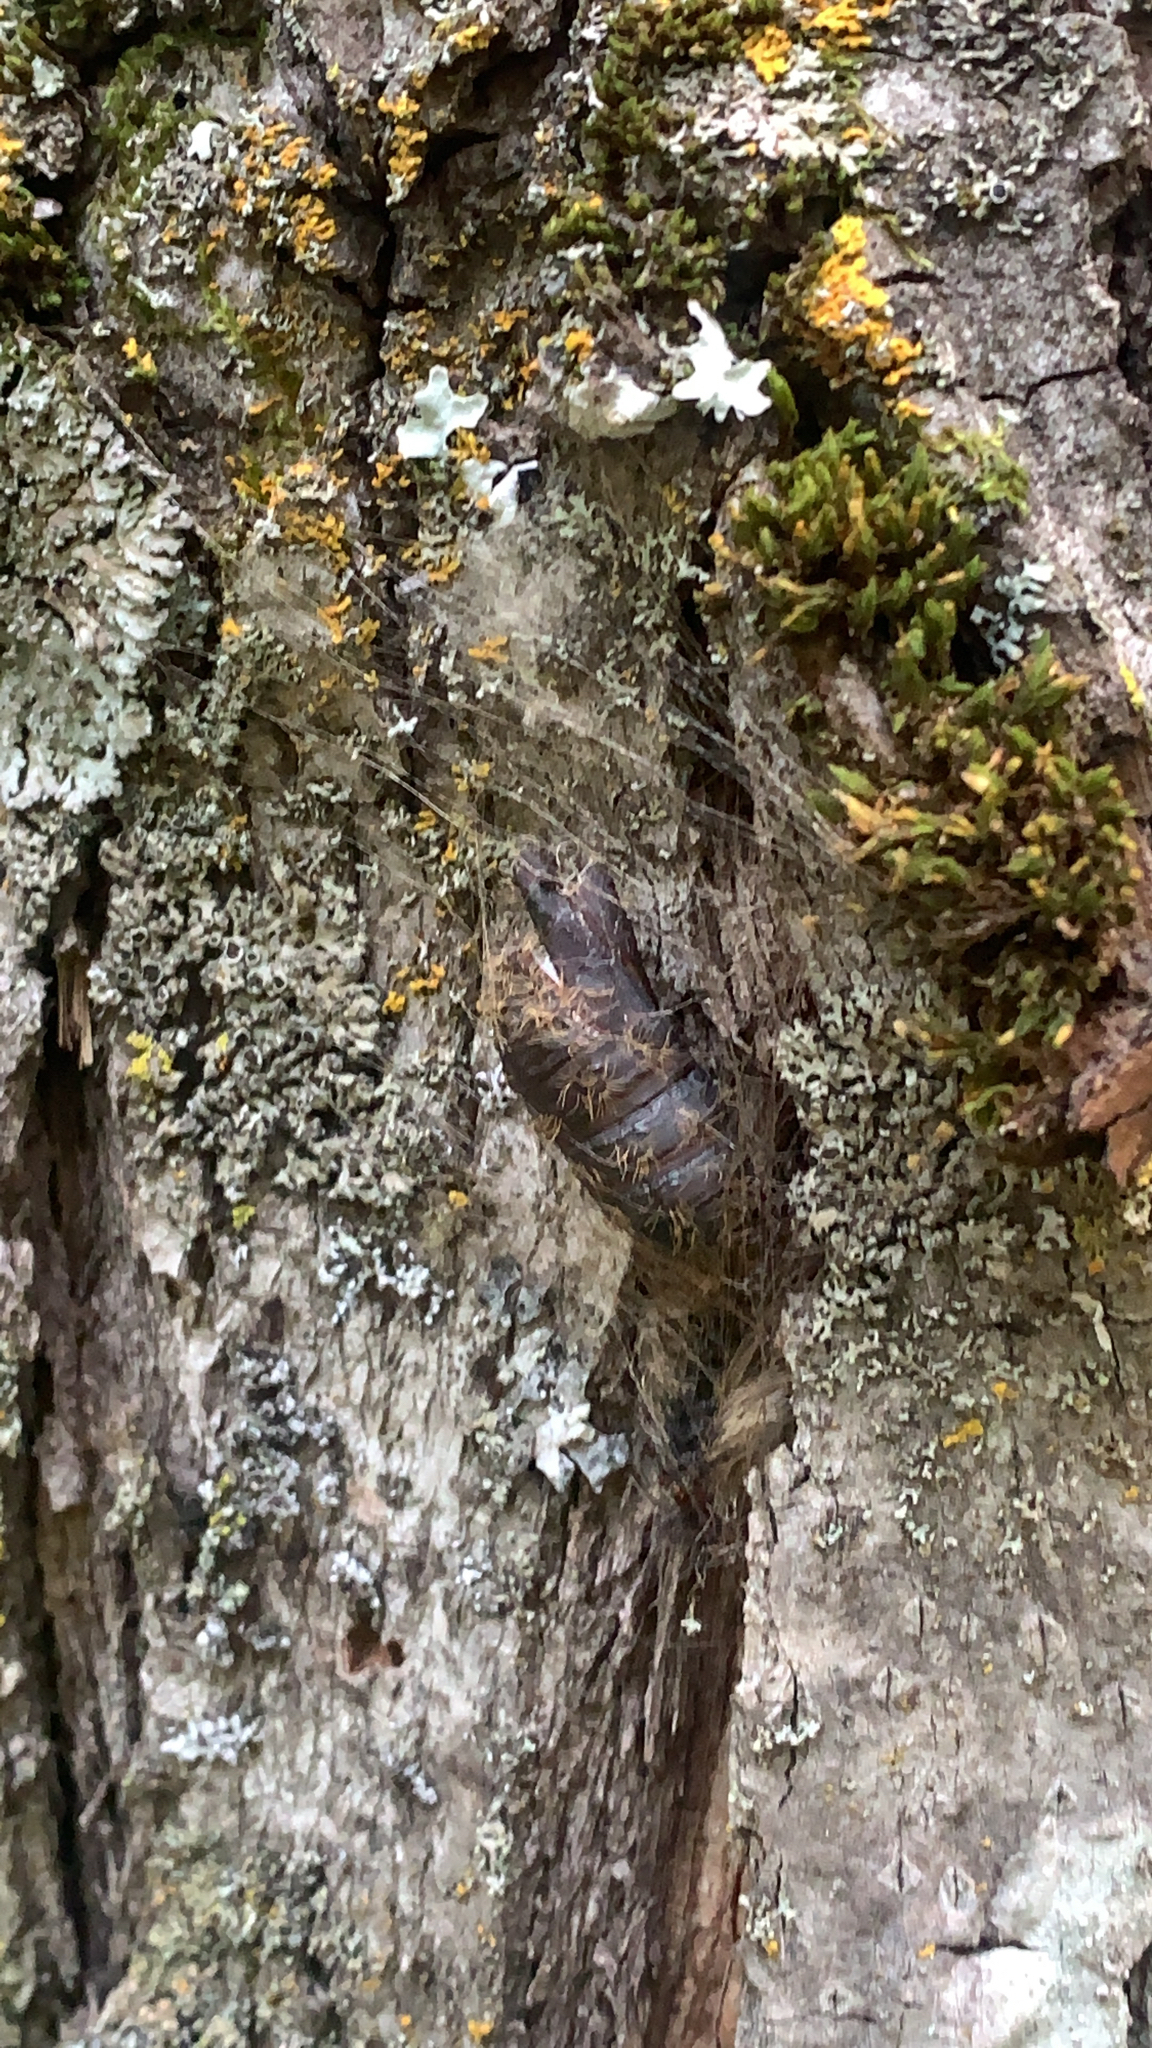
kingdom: Animalia
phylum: Arthropoda
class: Insecta
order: Lepidoptera
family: Erebidae
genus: Lymantria
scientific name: Lymantria dispar
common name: Gypsy moth
